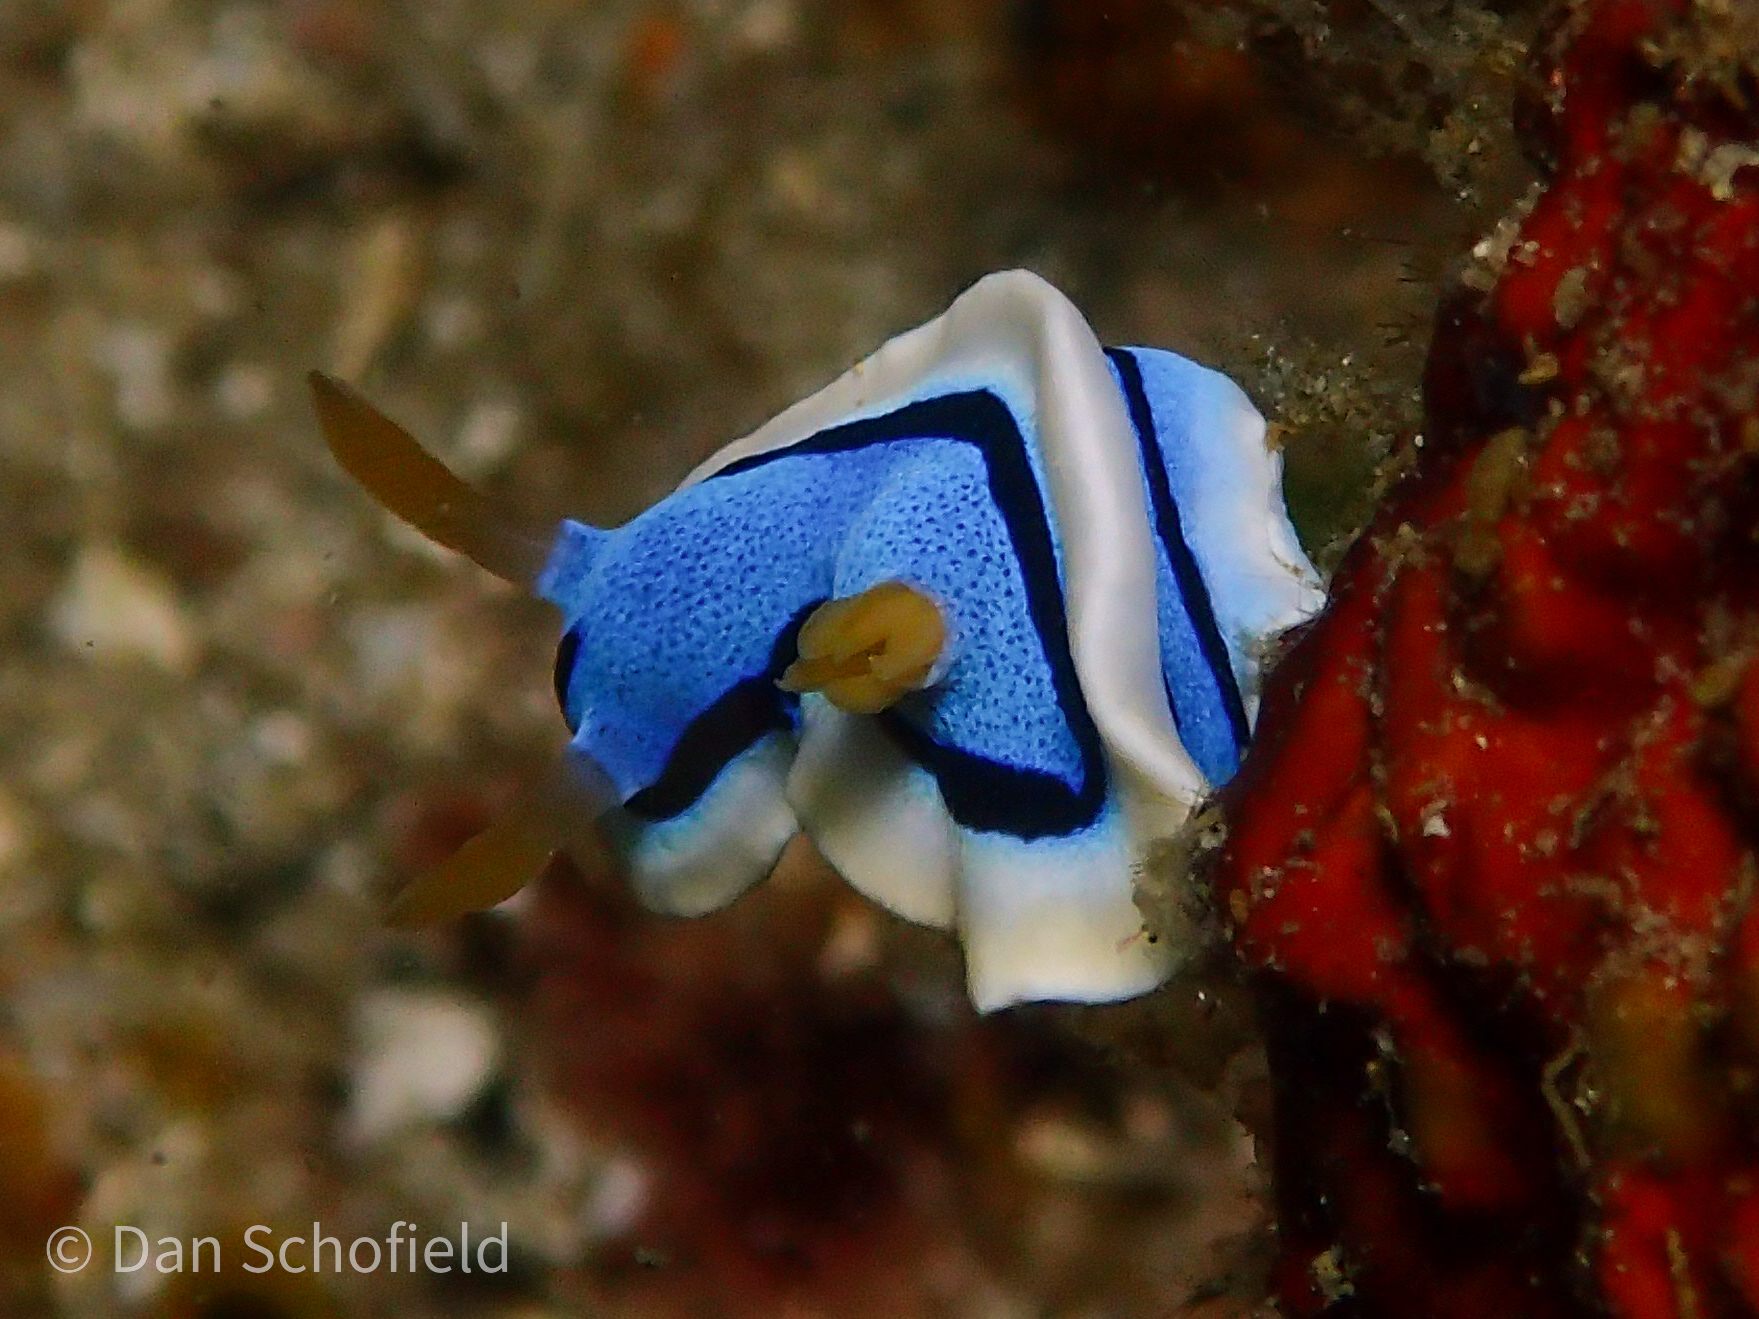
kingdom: Animalia
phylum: Mollusca
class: Gastropoda
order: Nudibranchia
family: Chromodorididae
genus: Chromodoris
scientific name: Chromodoris annae
